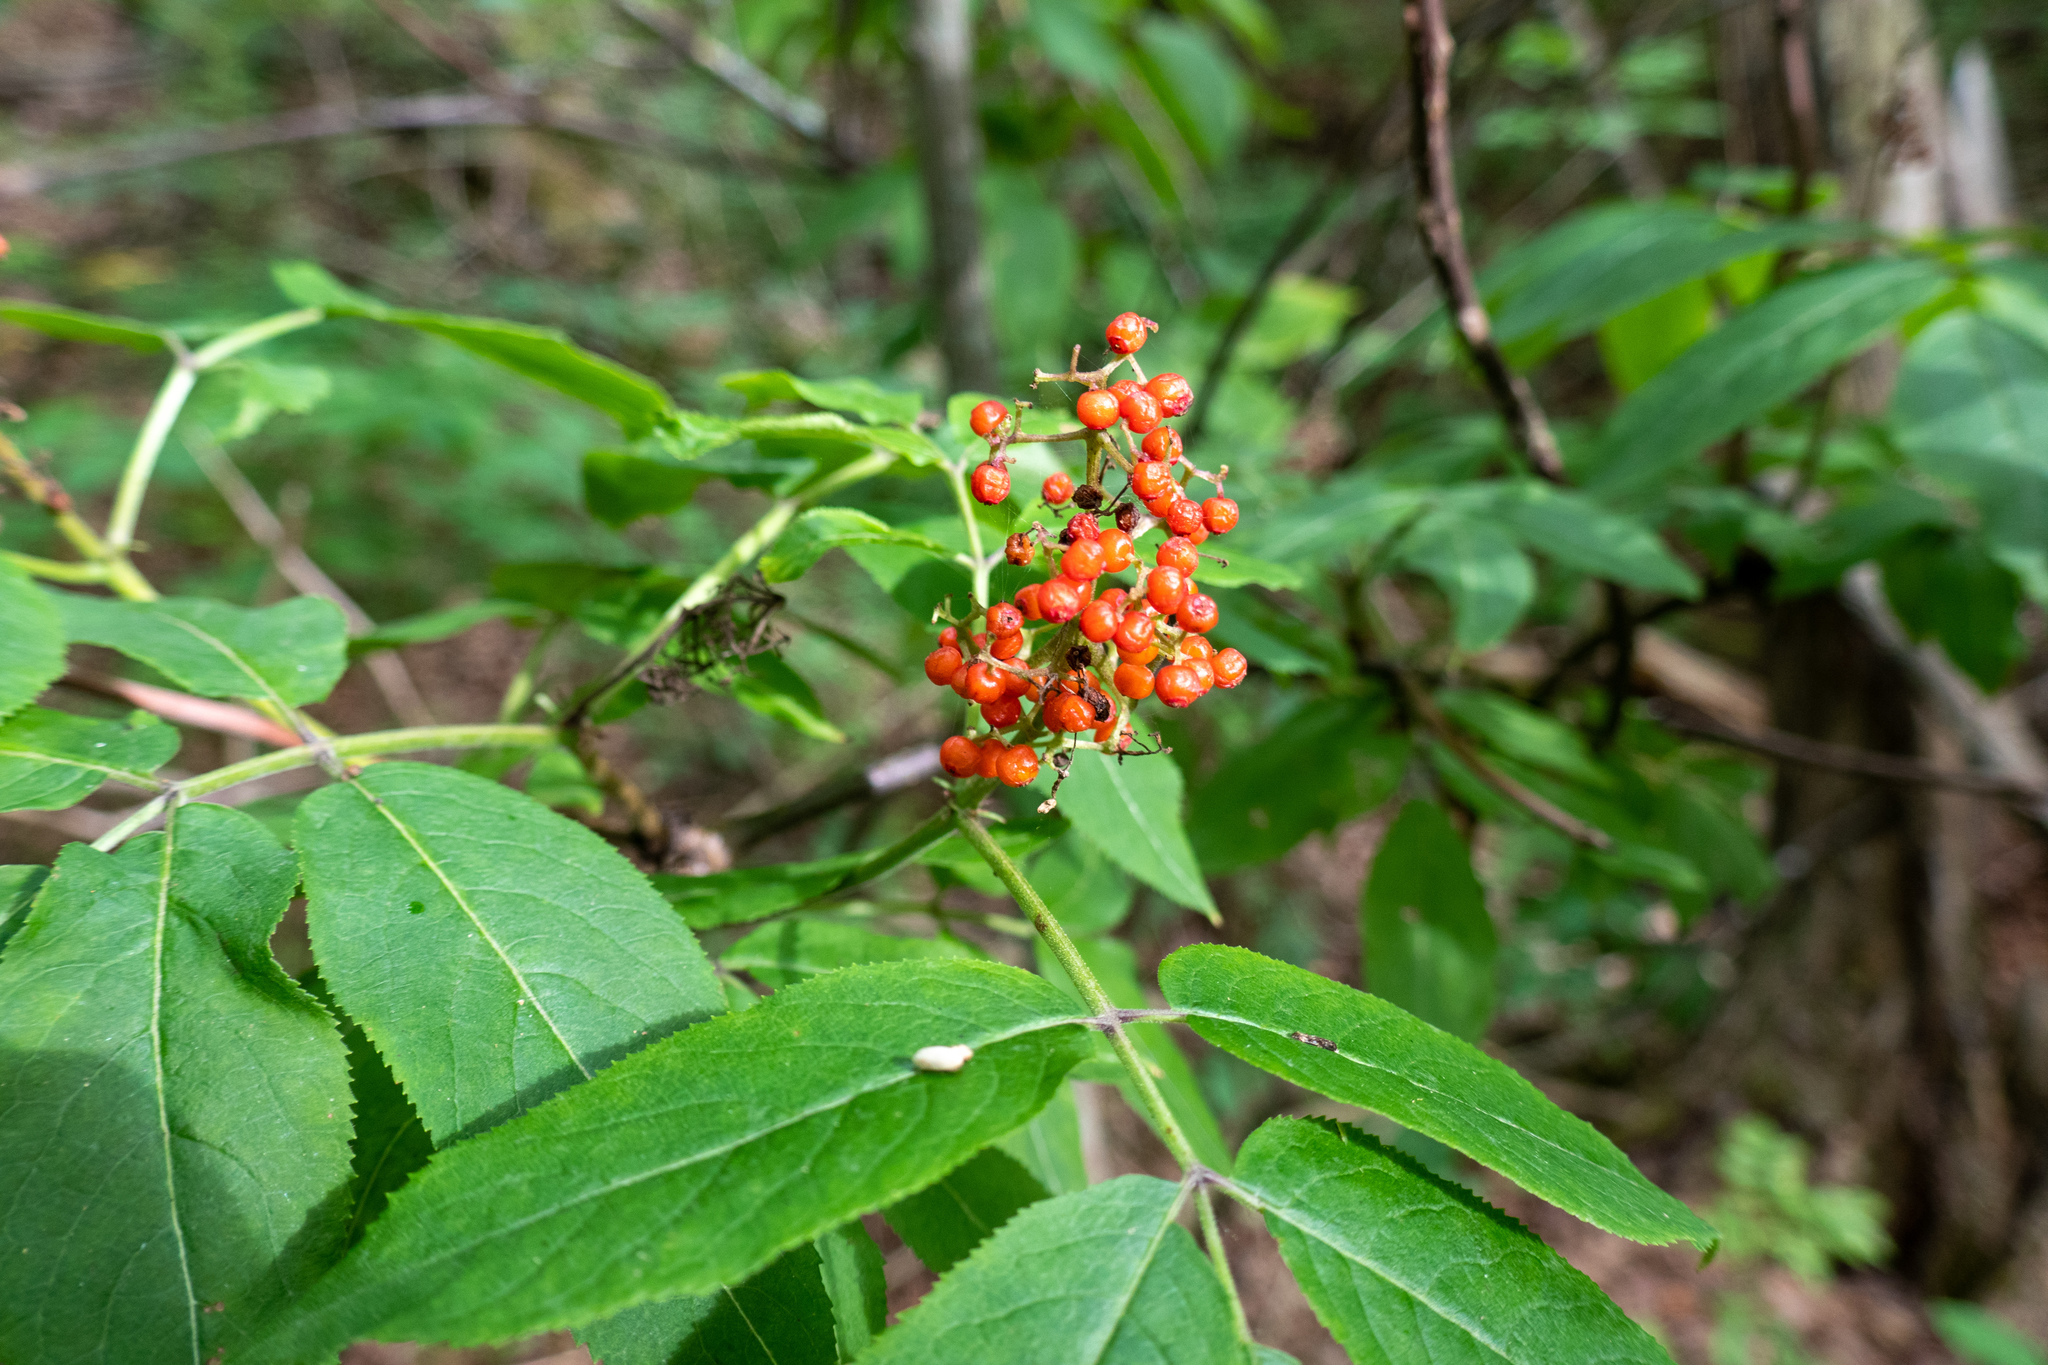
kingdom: Plantae
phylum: Tracheophyta
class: Magnoliopsida
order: Dipsacales
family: Viburnaceae
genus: Sambucus
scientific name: Sambucus racemosa
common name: Red-berried elder
